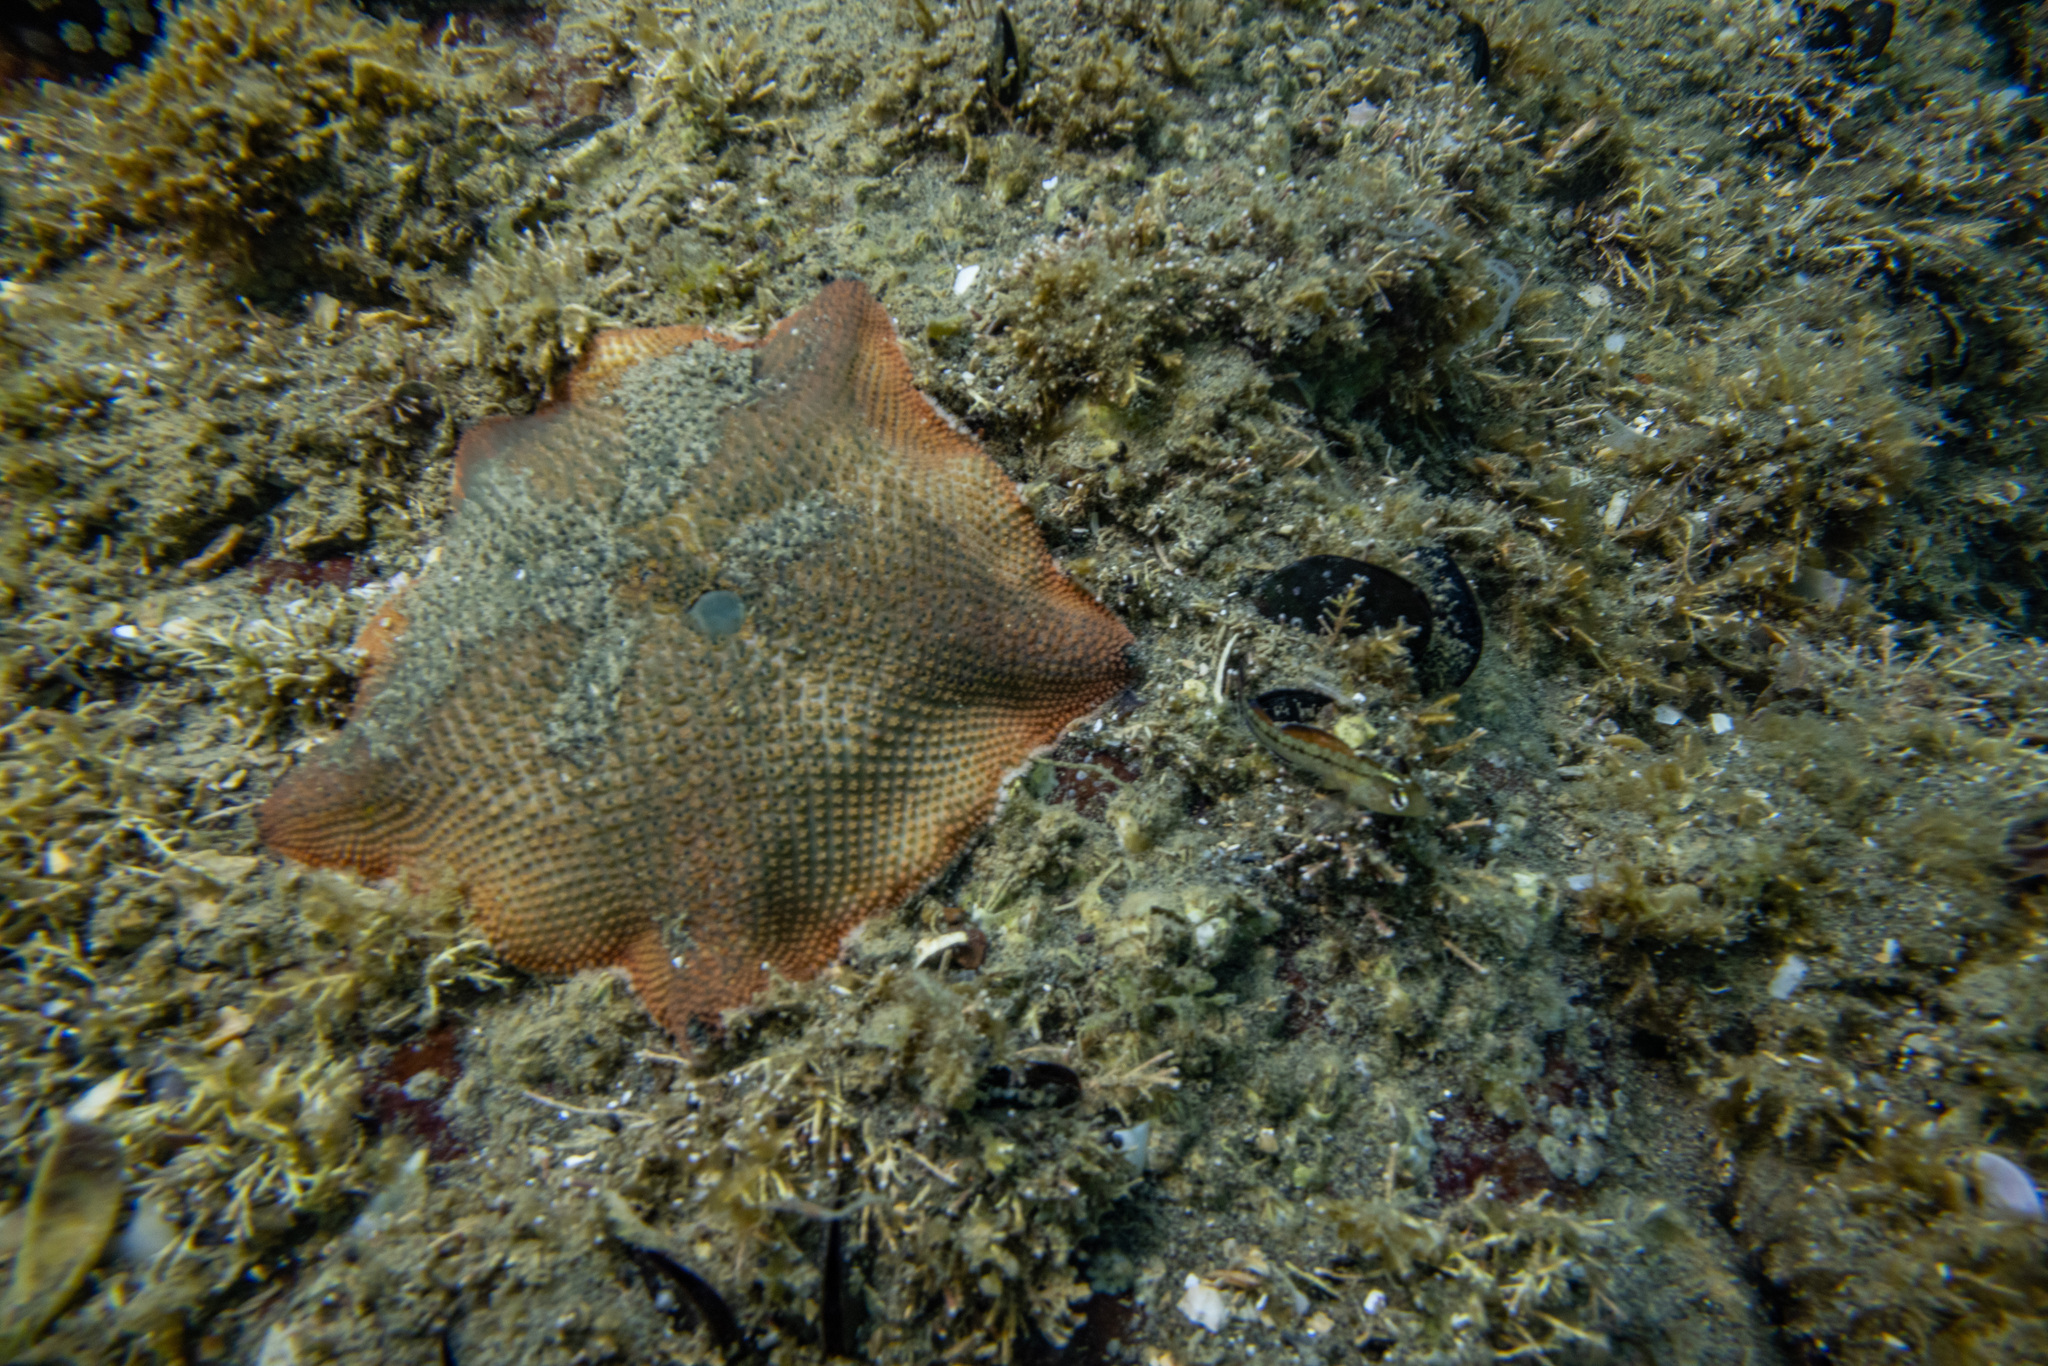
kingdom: Animalia
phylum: Echinodermata
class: Asteroidea
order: Valvatida
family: Asterinidae
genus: Patiriella
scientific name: Patiriella regularis
